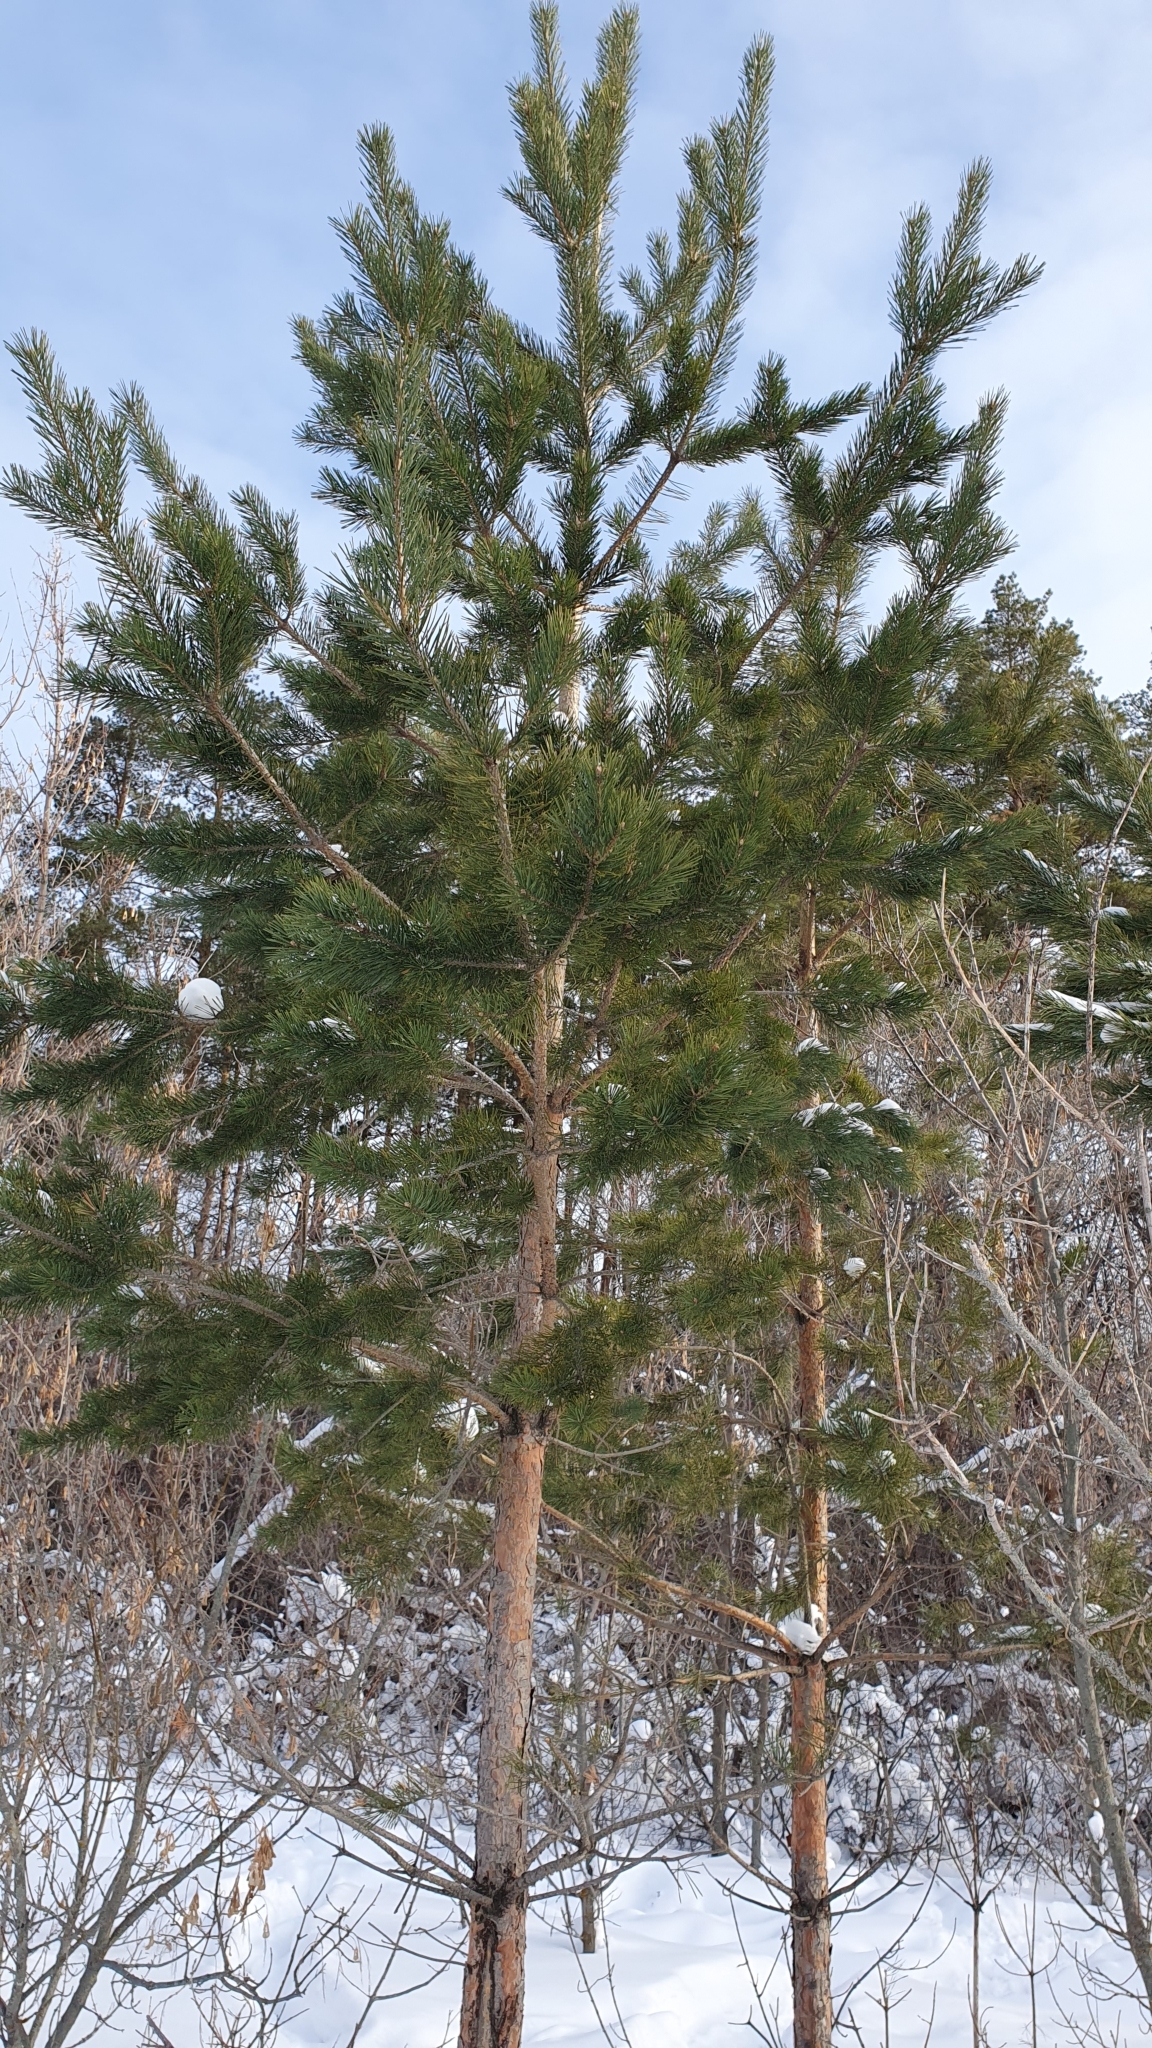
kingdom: Plantae
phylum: Tracheophyta
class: Pinopsida
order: Pinales
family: Pinaceae
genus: Pinus
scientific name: Pinus sylvestris
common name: Scots pine
